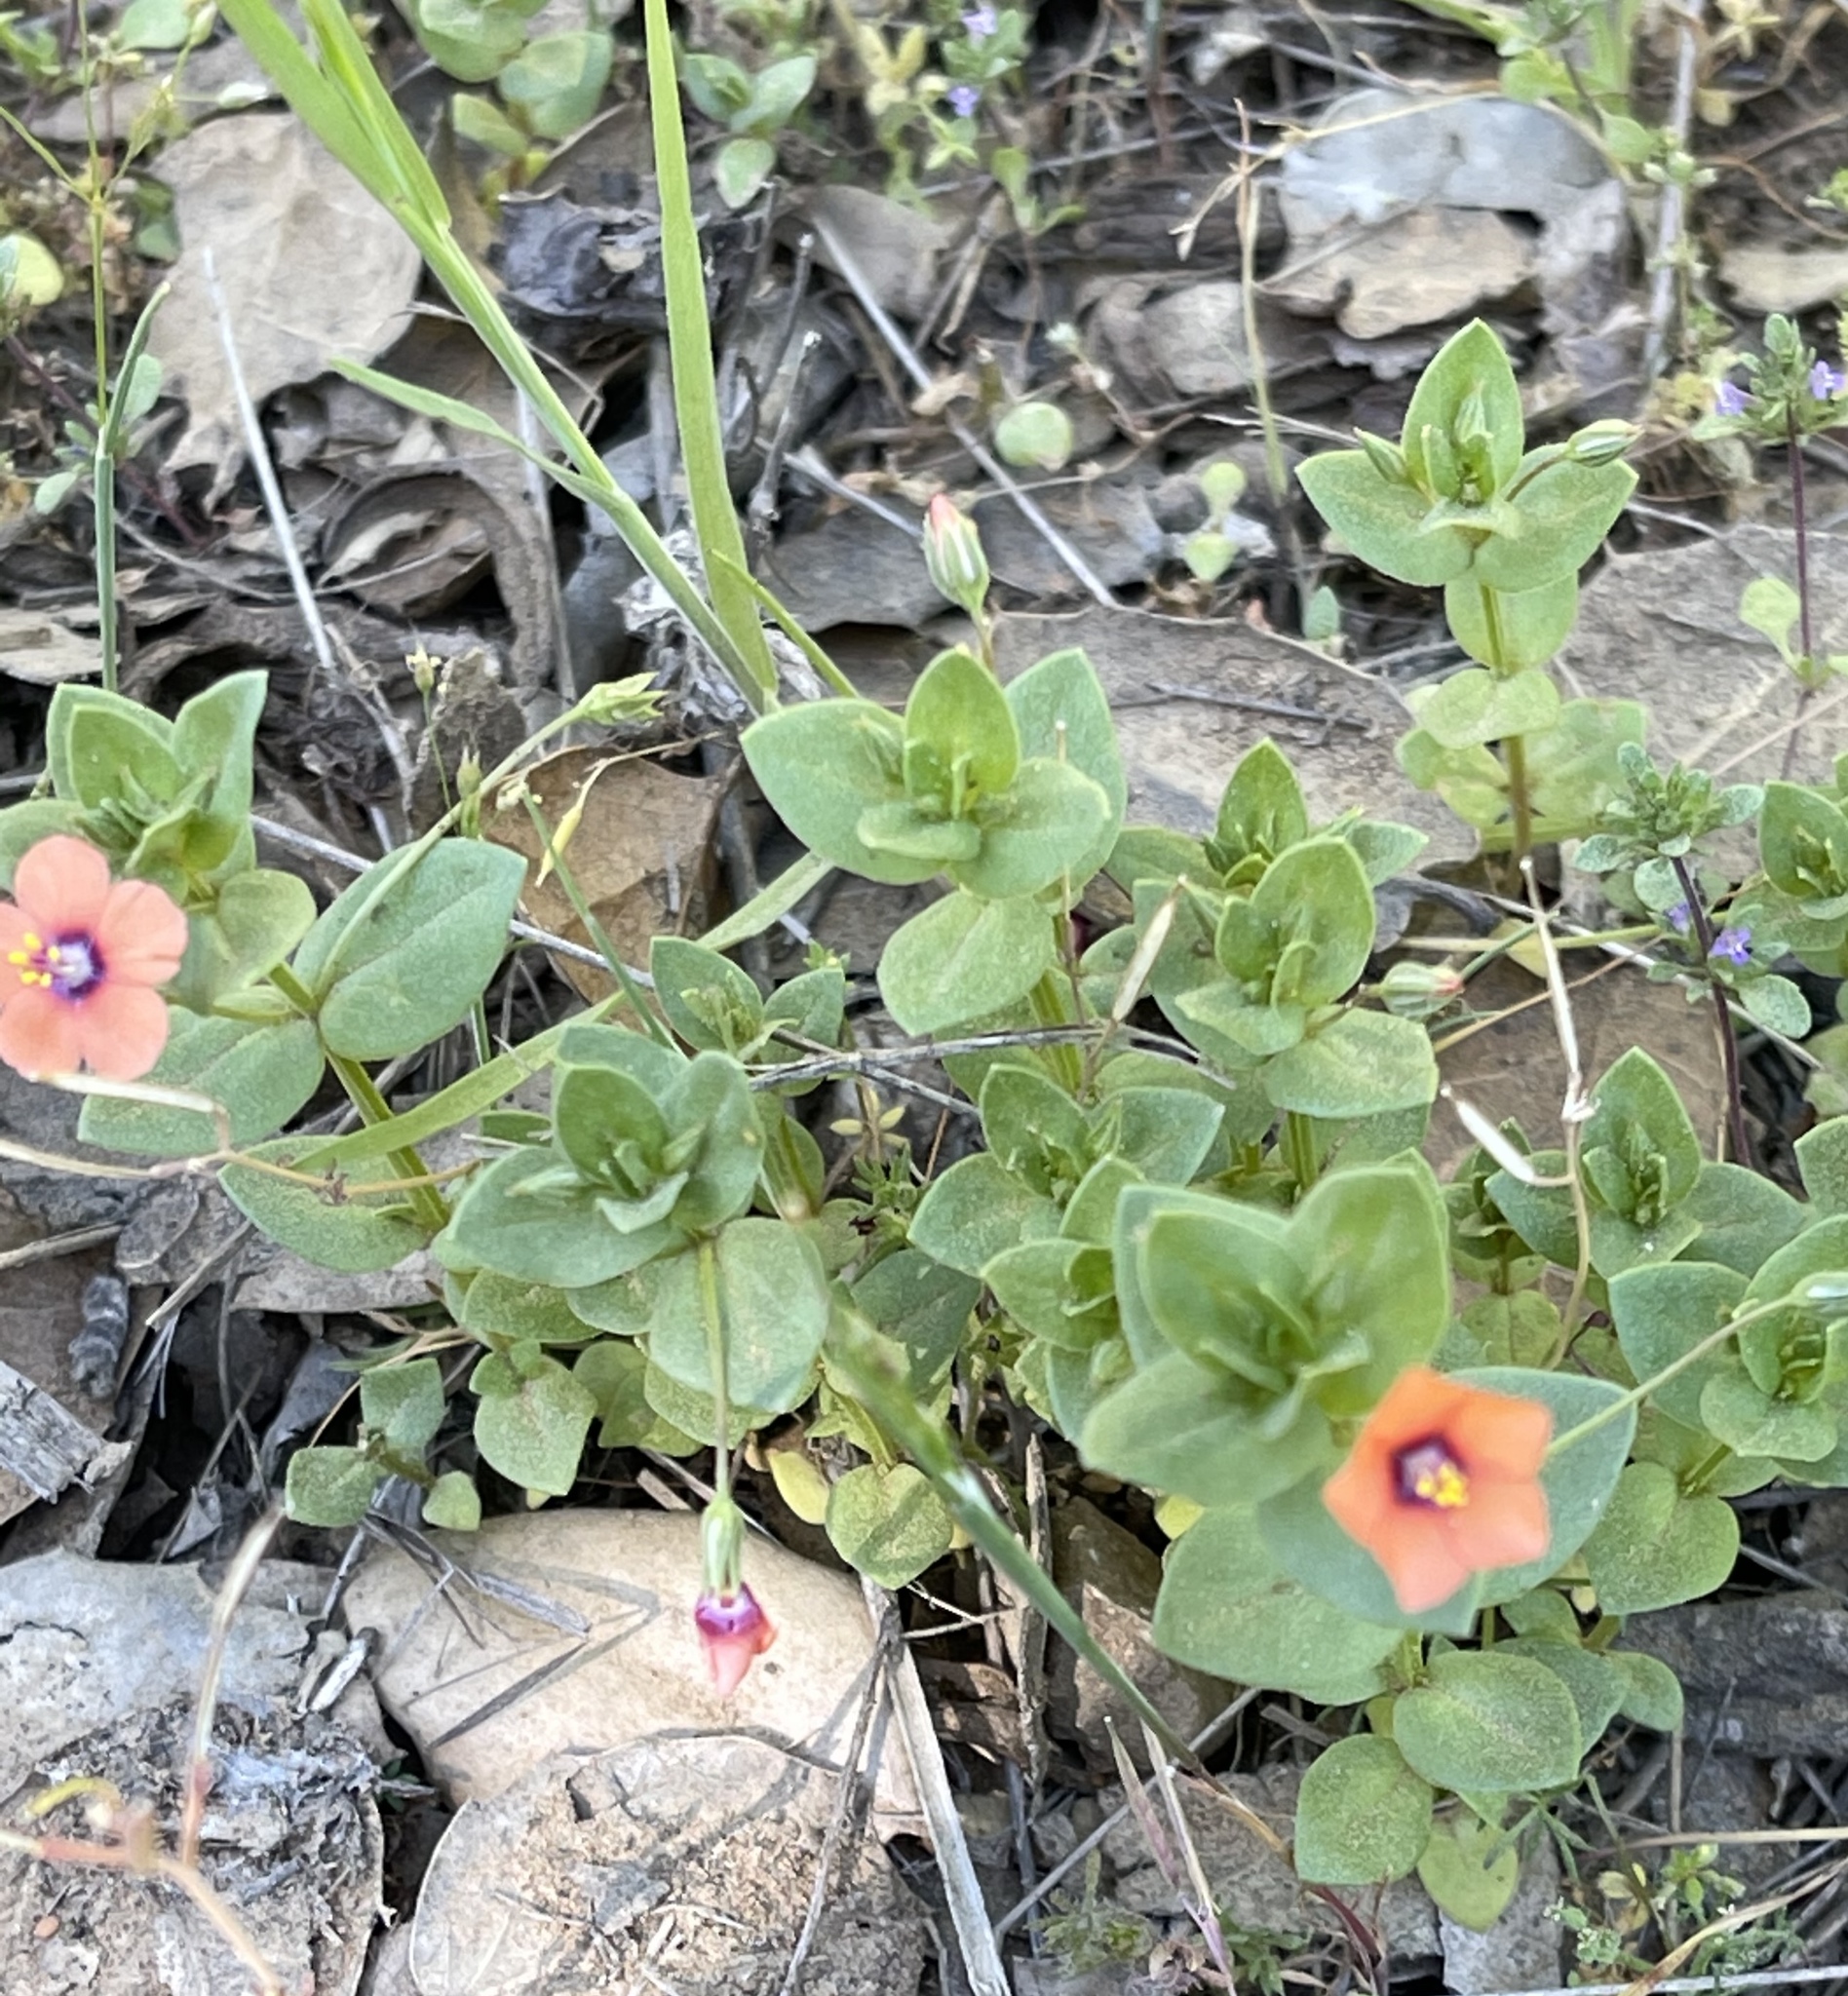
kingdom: Plantae
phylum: Tracheophyta
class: Magnoliopsida
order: Ericales
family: Primulaceae
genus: Lysimachia
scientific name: Lysimachia arvensis
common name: Scarlet pimpernel
